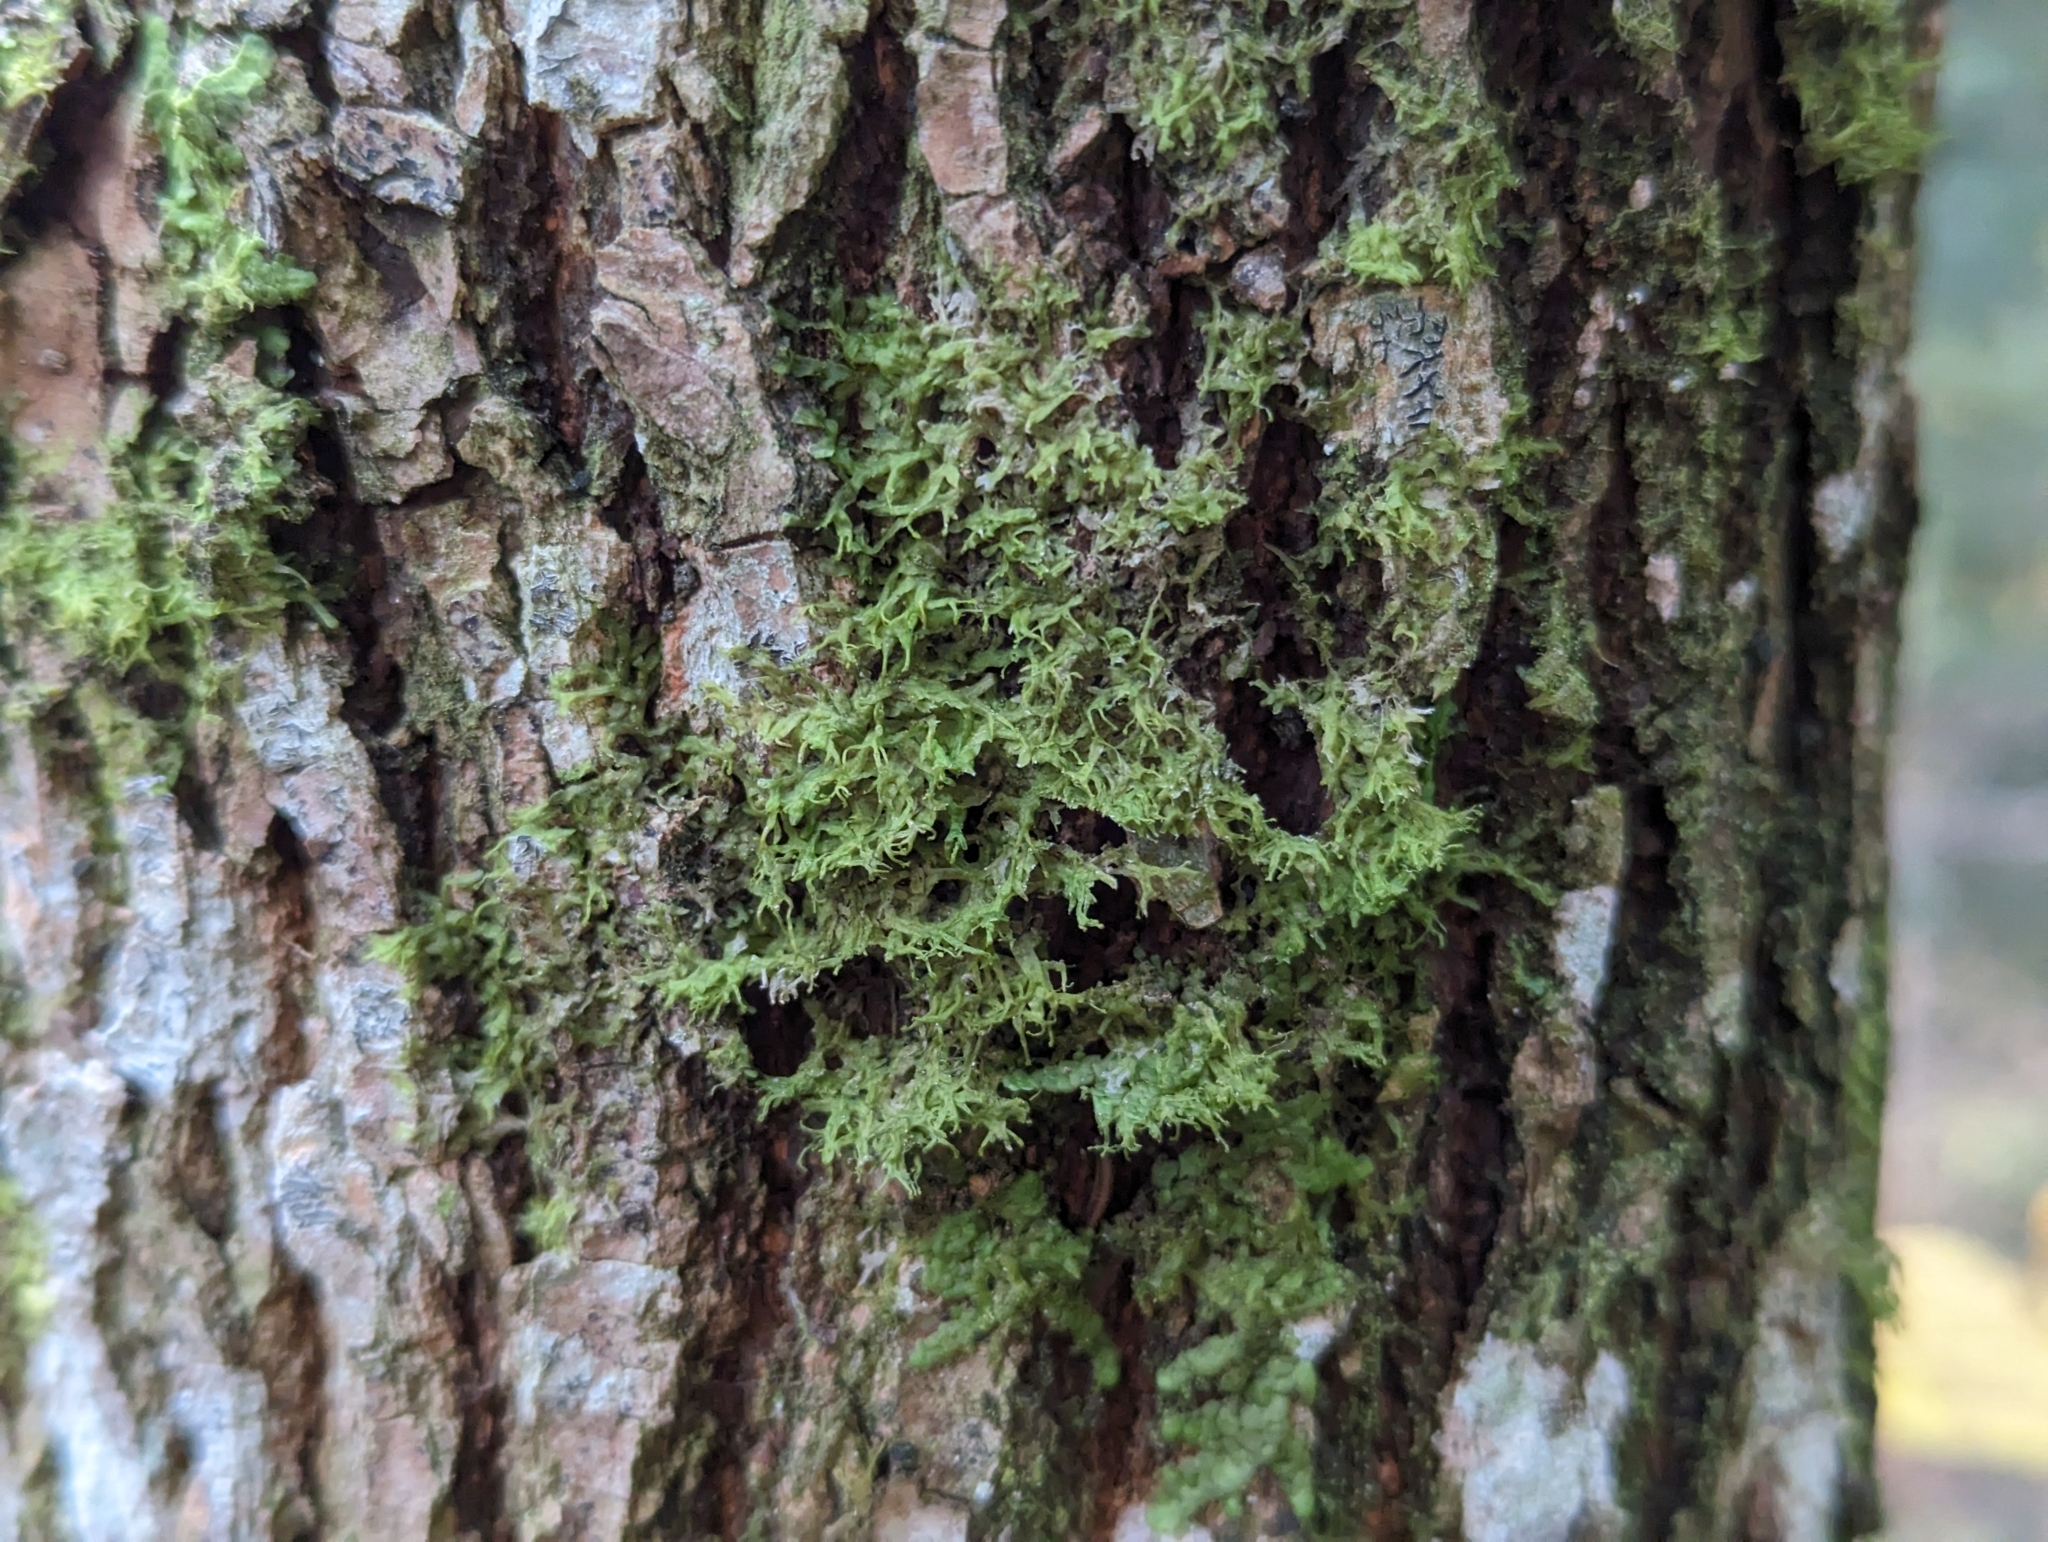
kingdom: Plantae
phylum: Marchantiophyta
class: Jungermanniopsida
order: Metzgeriales
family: Metzgeriaceae
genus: Metzgeria
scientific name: Metzgeria violacea
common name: Blueish veilwort
